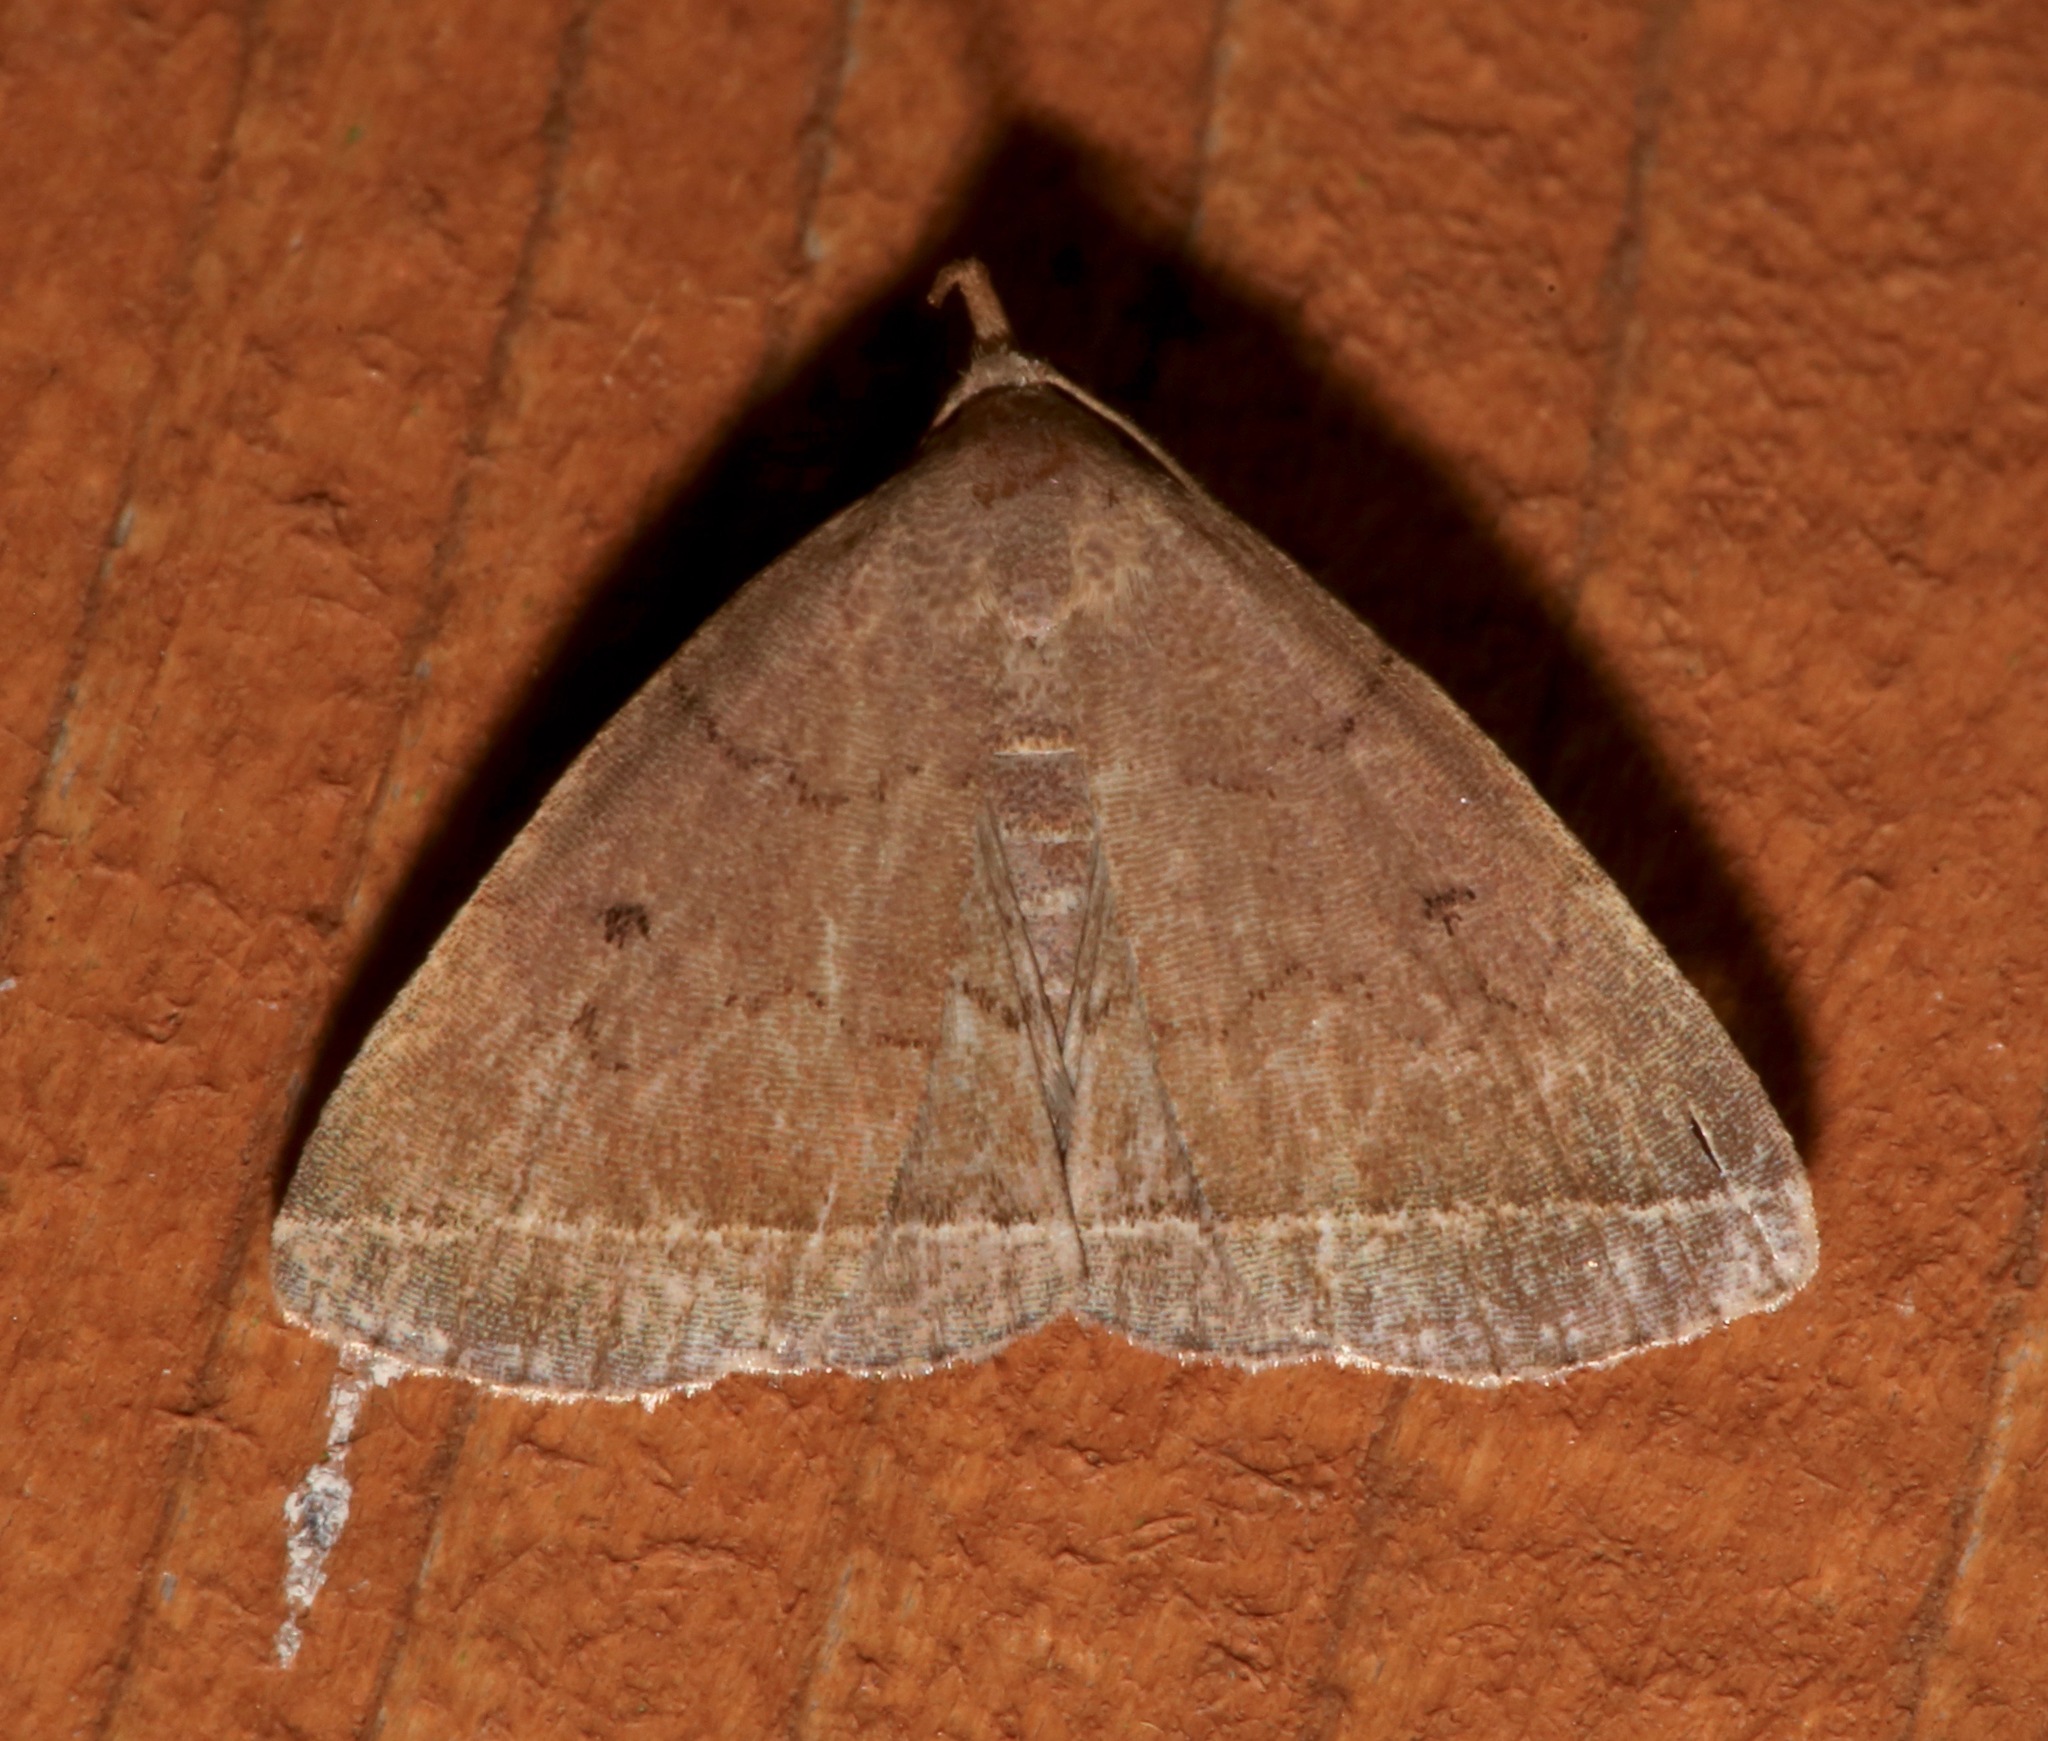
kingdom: Animalia
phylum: Arthropoda
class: Insecta
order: Lepidoptera
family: Erebidae
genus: Zanclognatha
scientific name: Zanclognatha marcidilinea
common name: Yellowish fan-foot
